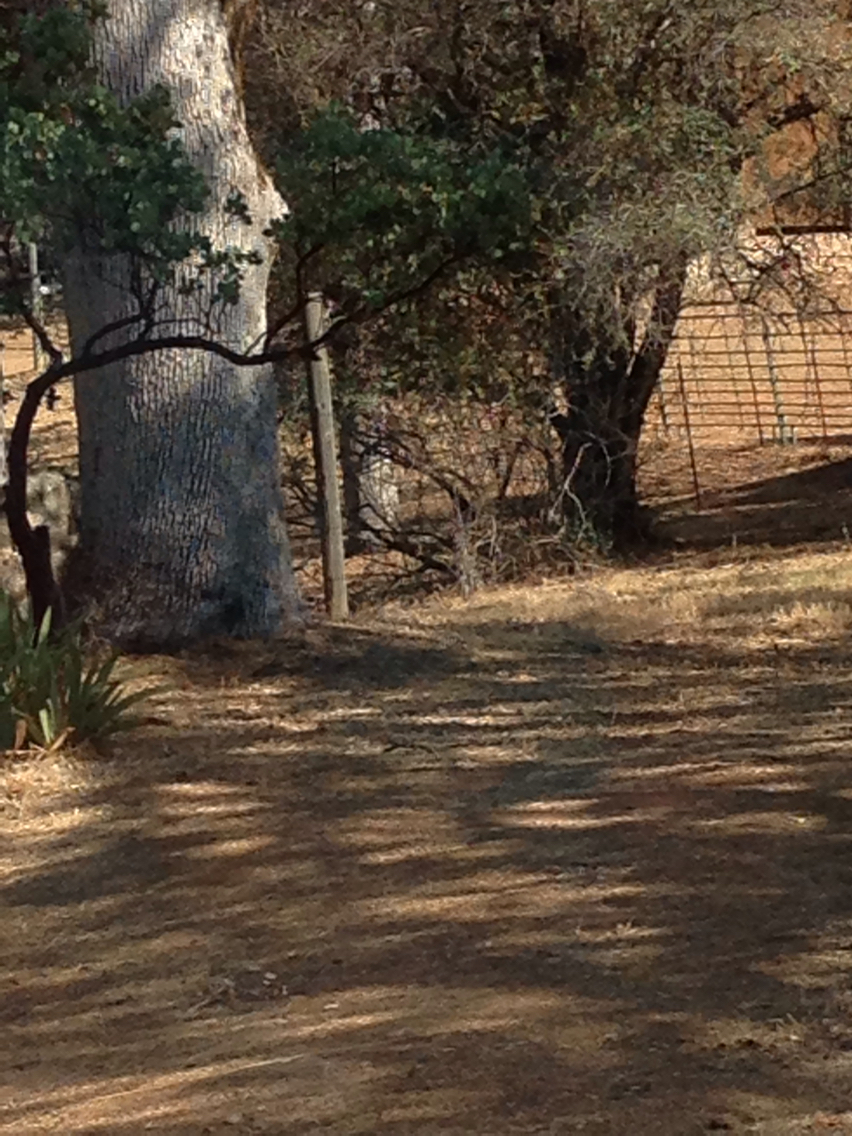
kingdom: Animalia
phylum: Chordata
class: Aves
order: Piciformes
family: Picidae
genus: Melanerpes
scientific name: Melanerpes formicivorus
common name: Acorn woodpecker
